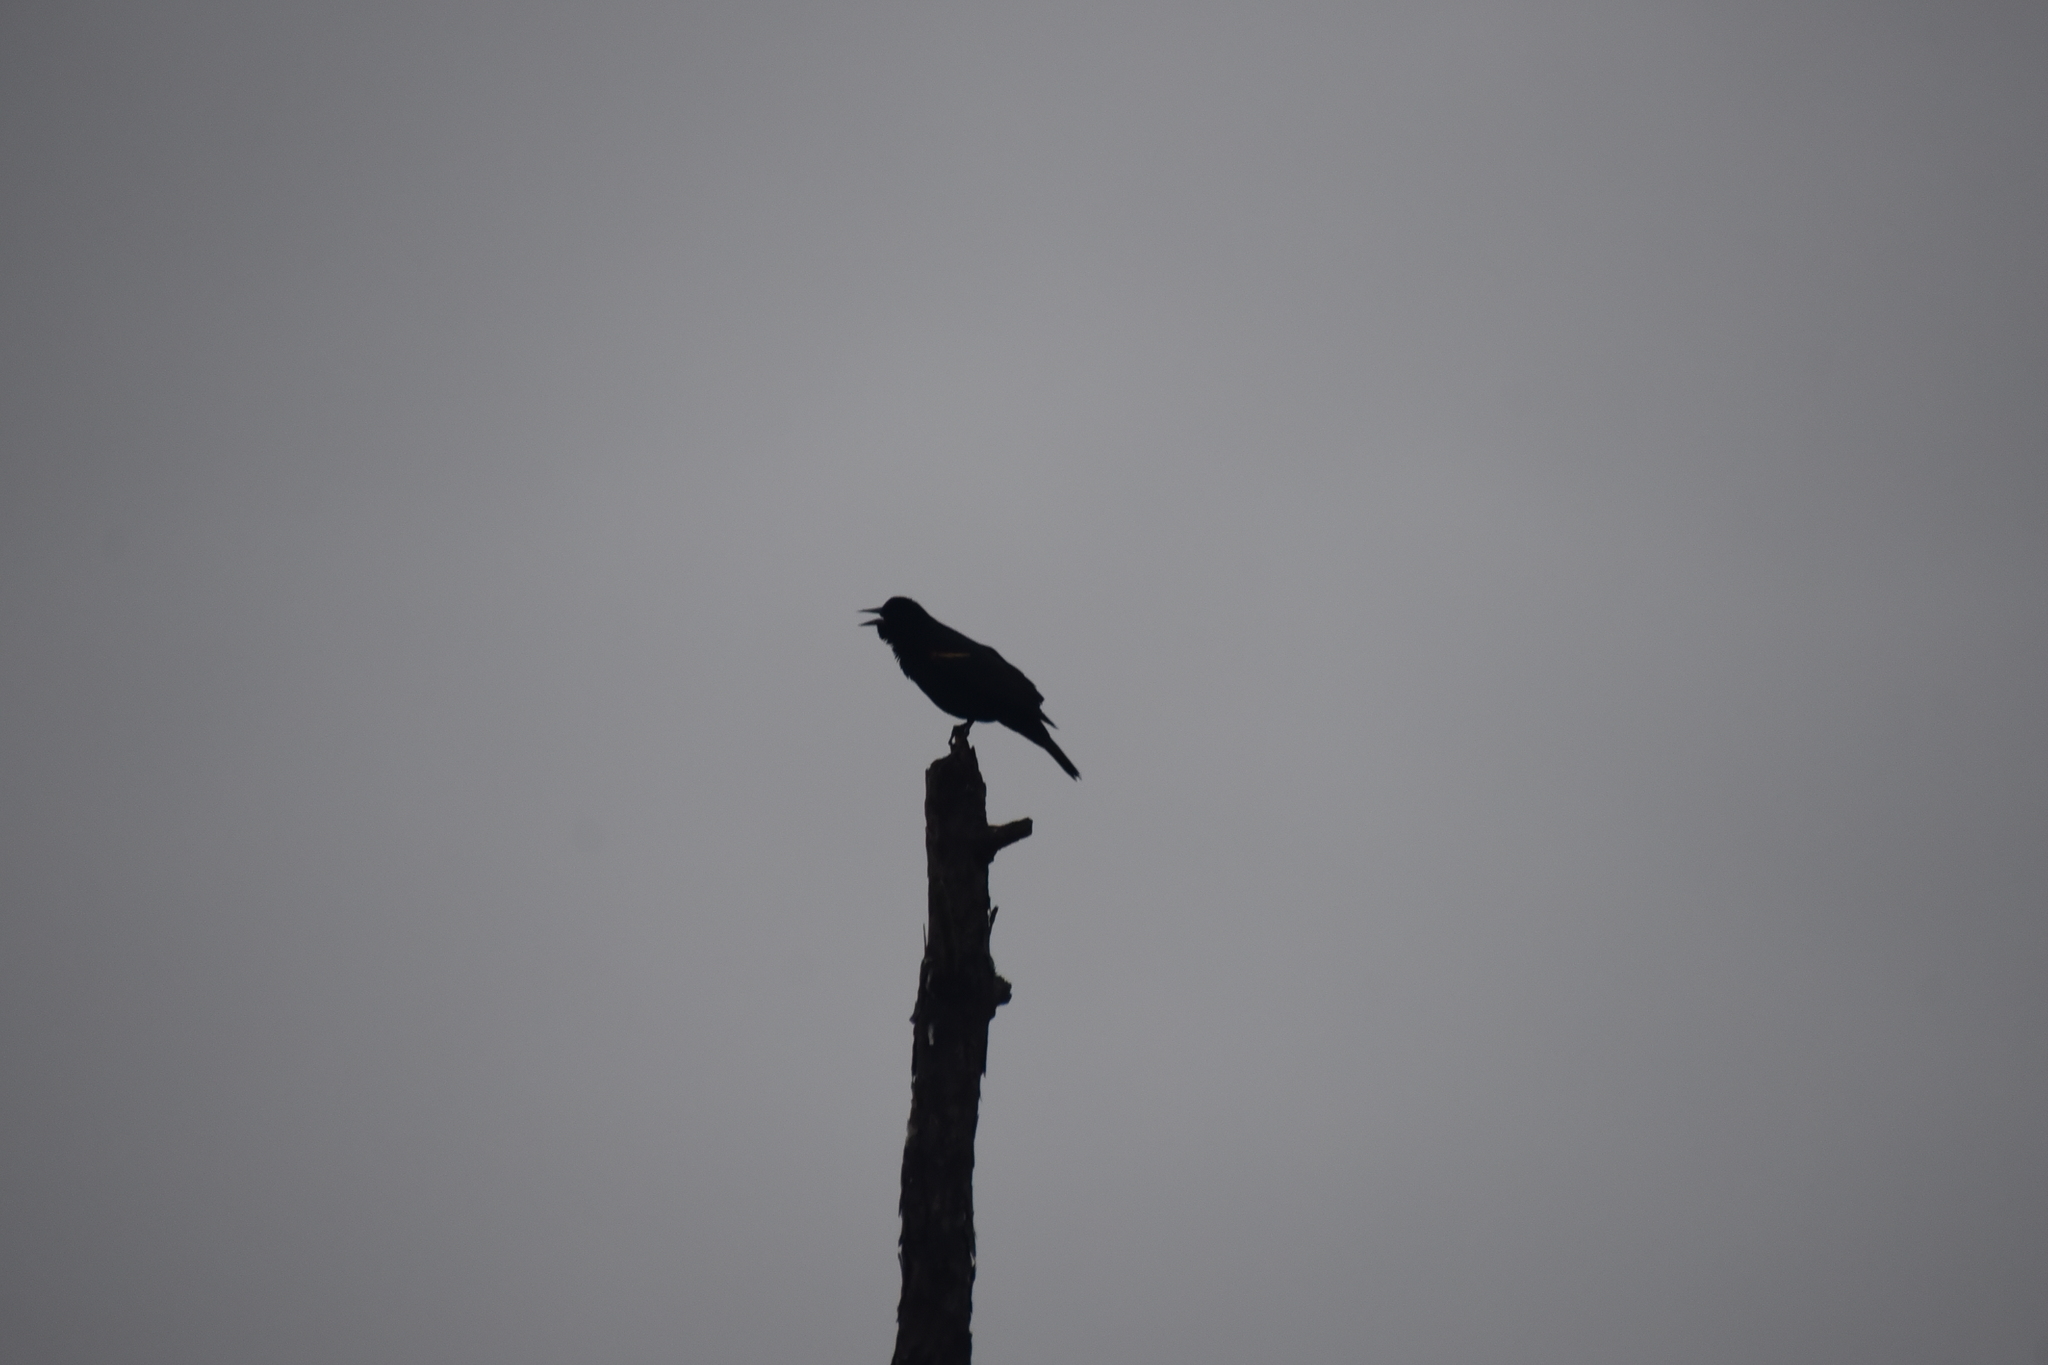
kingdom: Animalia
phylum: Chordata
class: Aves
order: Passeriformes
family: Icteridae
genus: Agelaius
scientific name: Agelaius phoeniceus
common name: Red-winged blackbird
